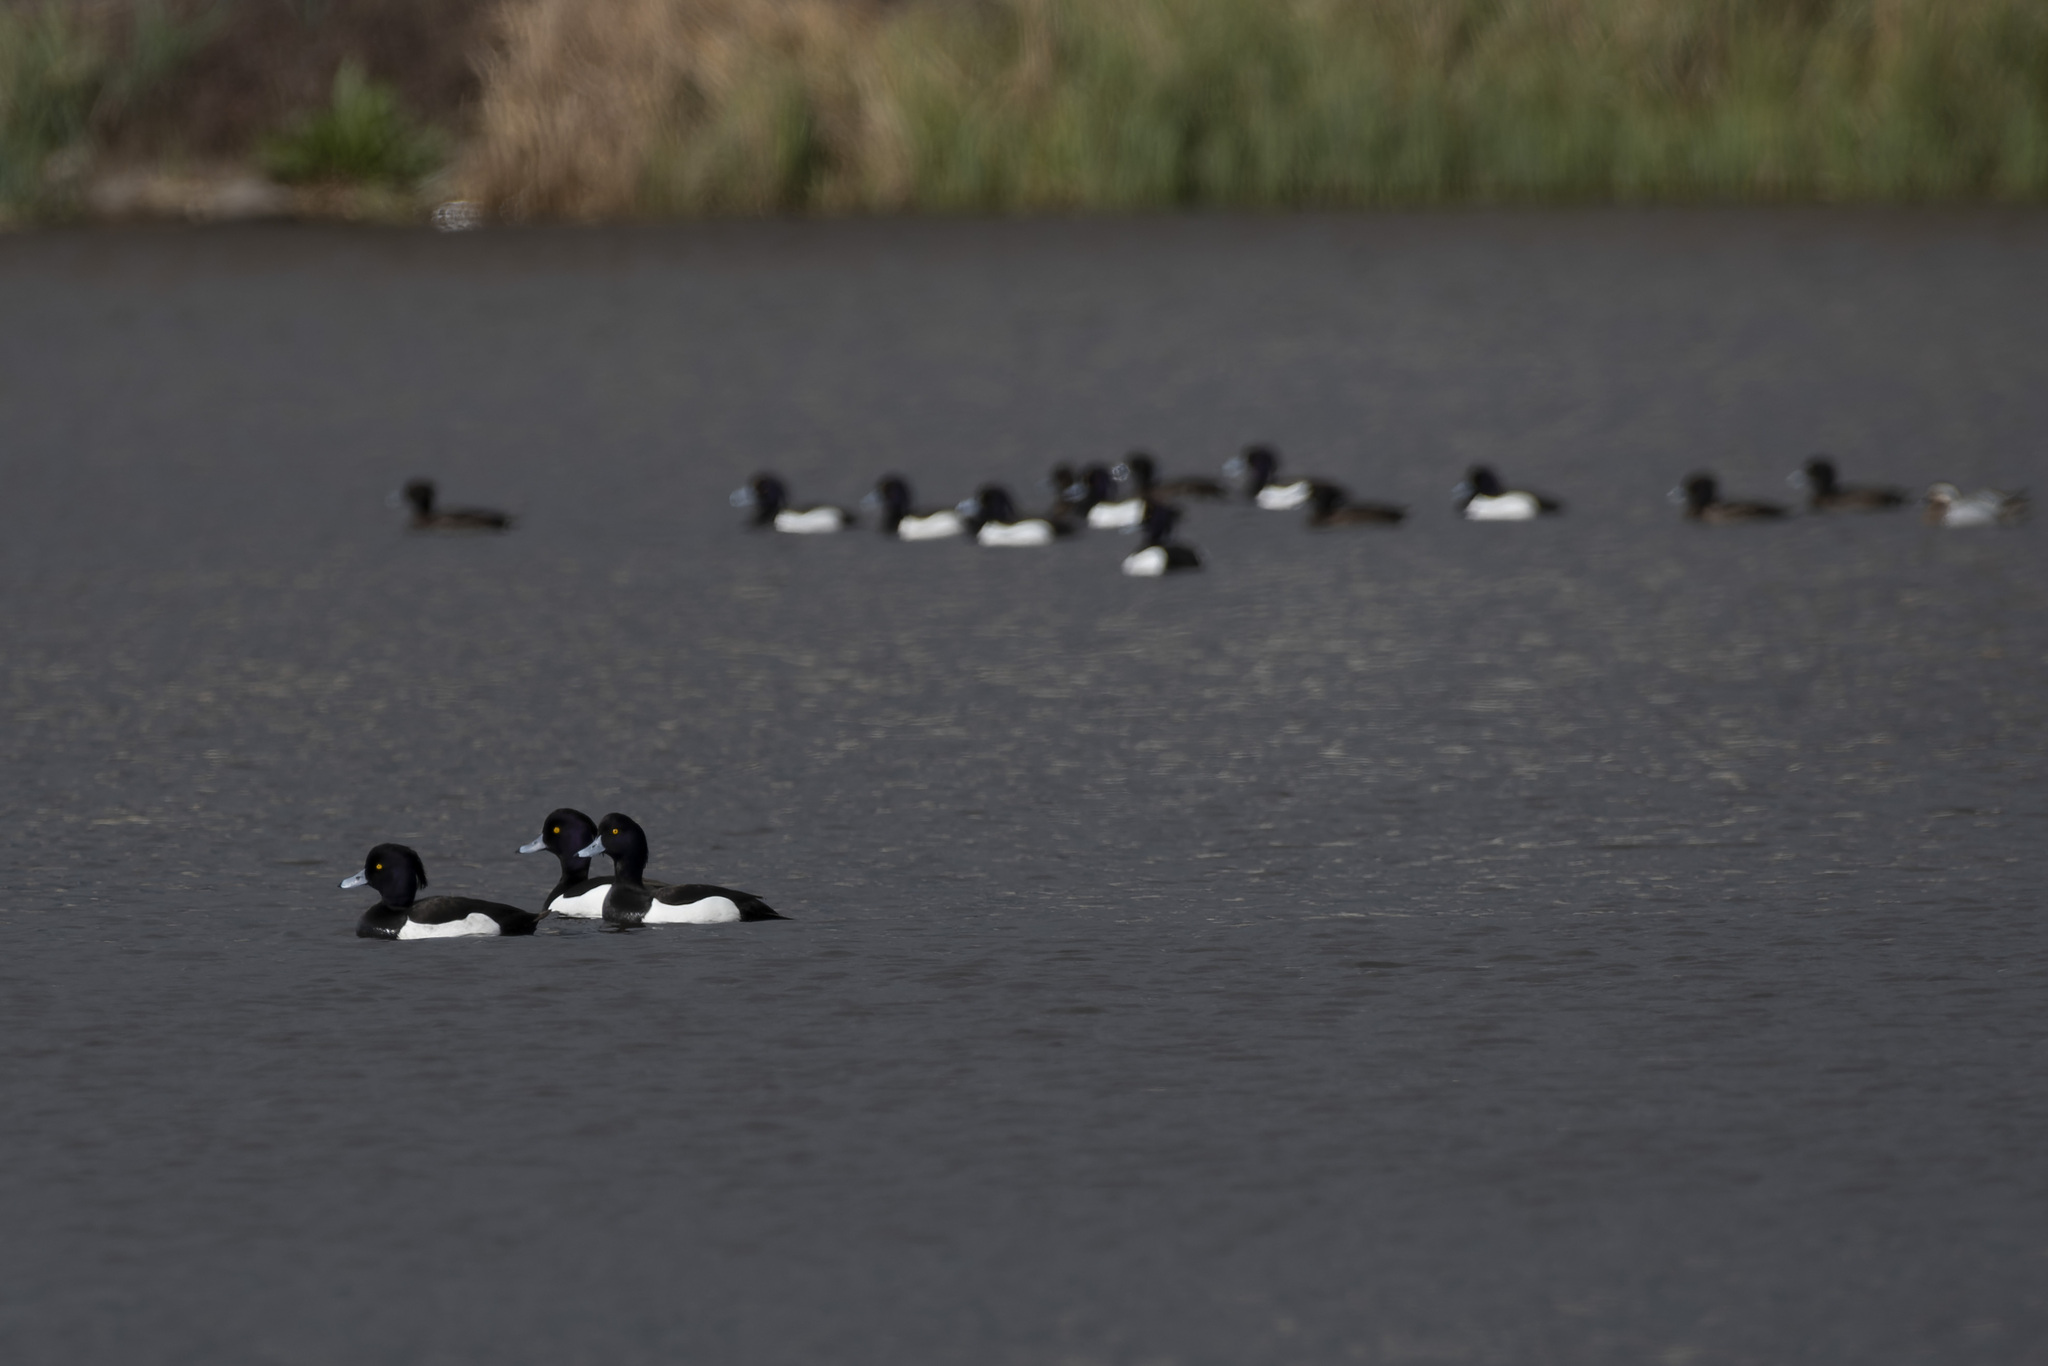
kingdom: Animalia
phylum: Chordata
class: Aves
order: Anseriformes
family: Anatidae
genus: Aythya
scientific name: Aythya fuligula
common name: Tufted duck
